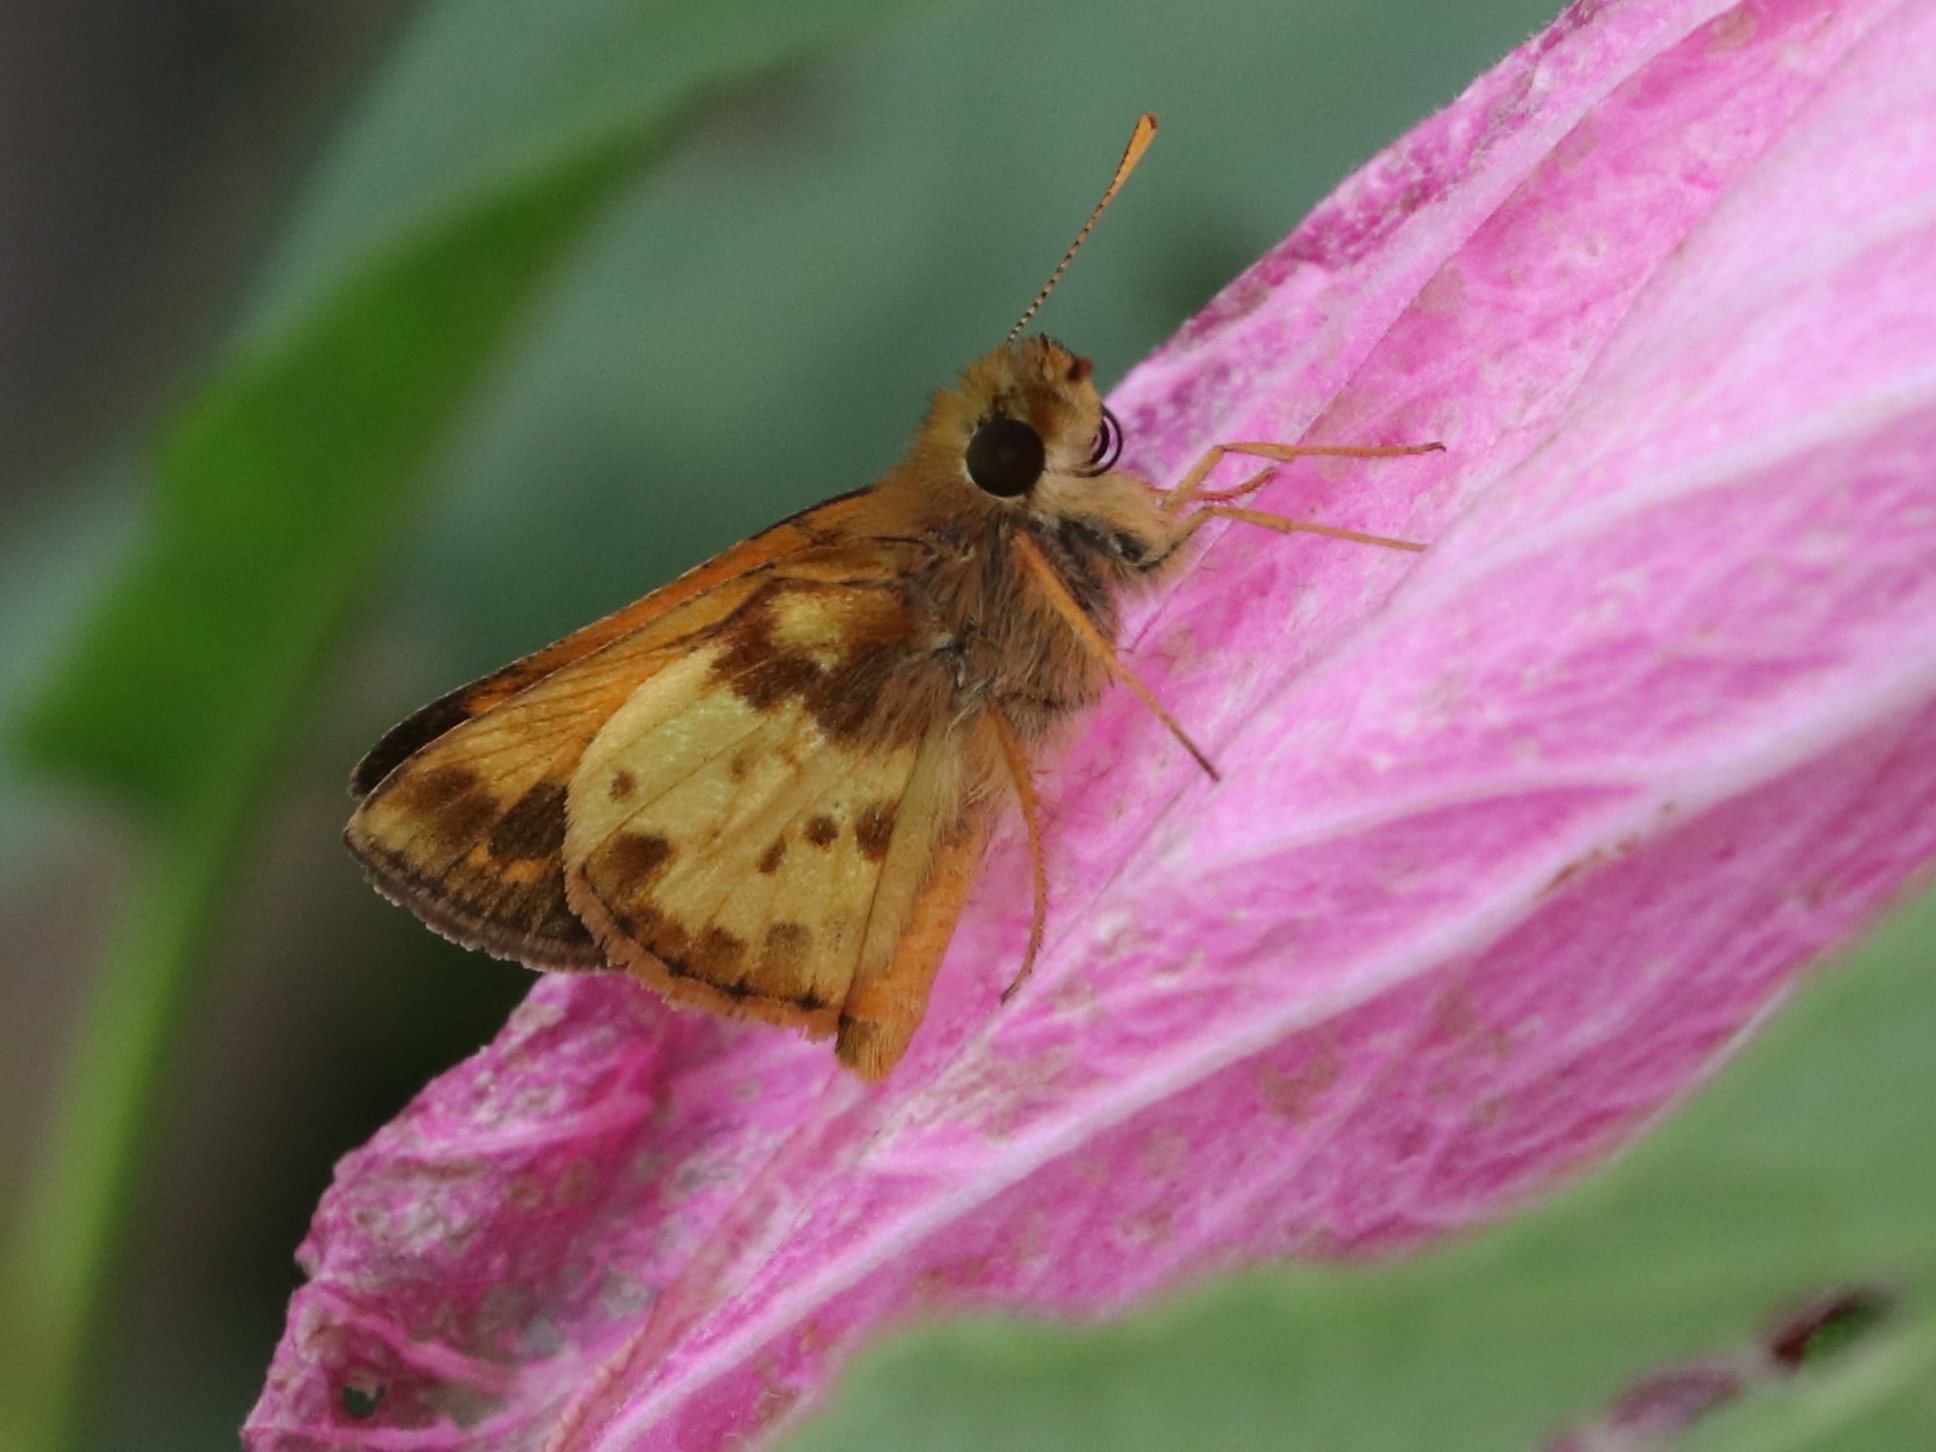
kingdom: Animalia
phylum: Arthropoda
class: Insecta
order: Lepidoptera
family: Hesperiidae
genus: Lon
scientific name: Lon zabulon
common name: Zabulon skipper
